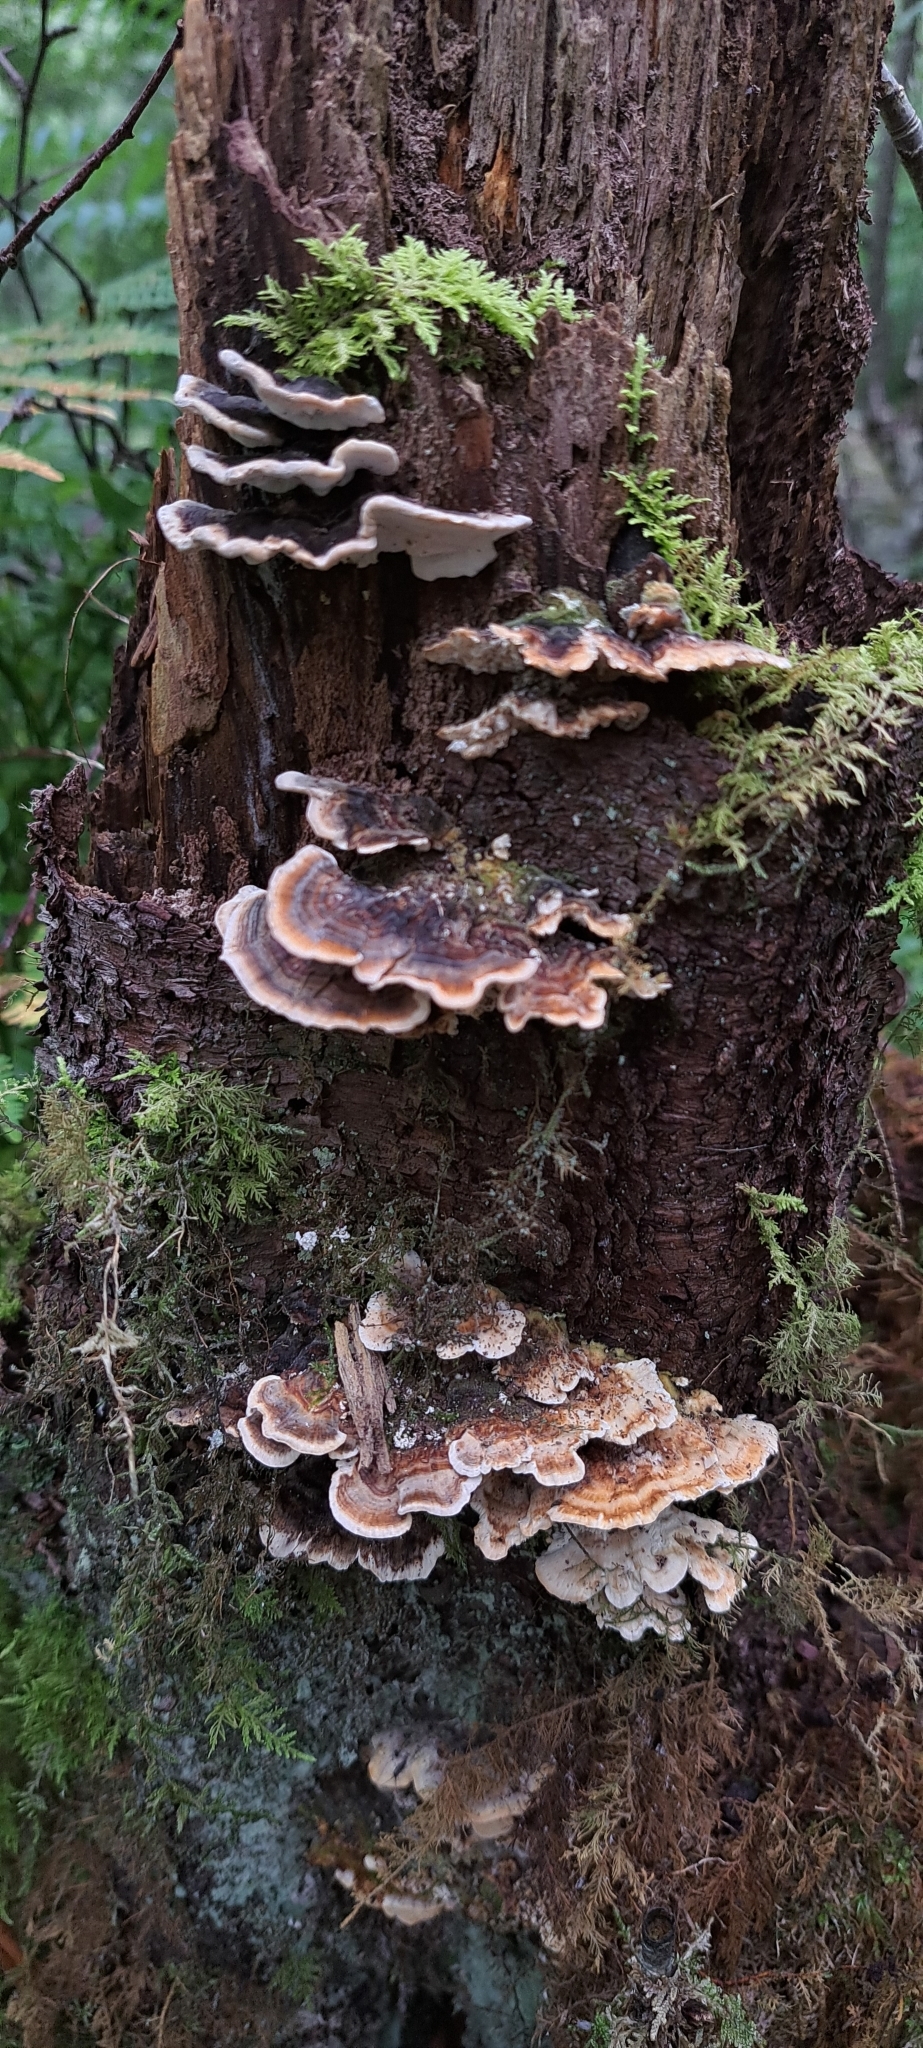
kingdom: Fungi
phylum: Basidiomycota
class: Agaricomycetes
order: Polyporales
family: Polyporaceae
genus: Trametes
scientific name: Trametes versicolor
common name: Turkeytail
